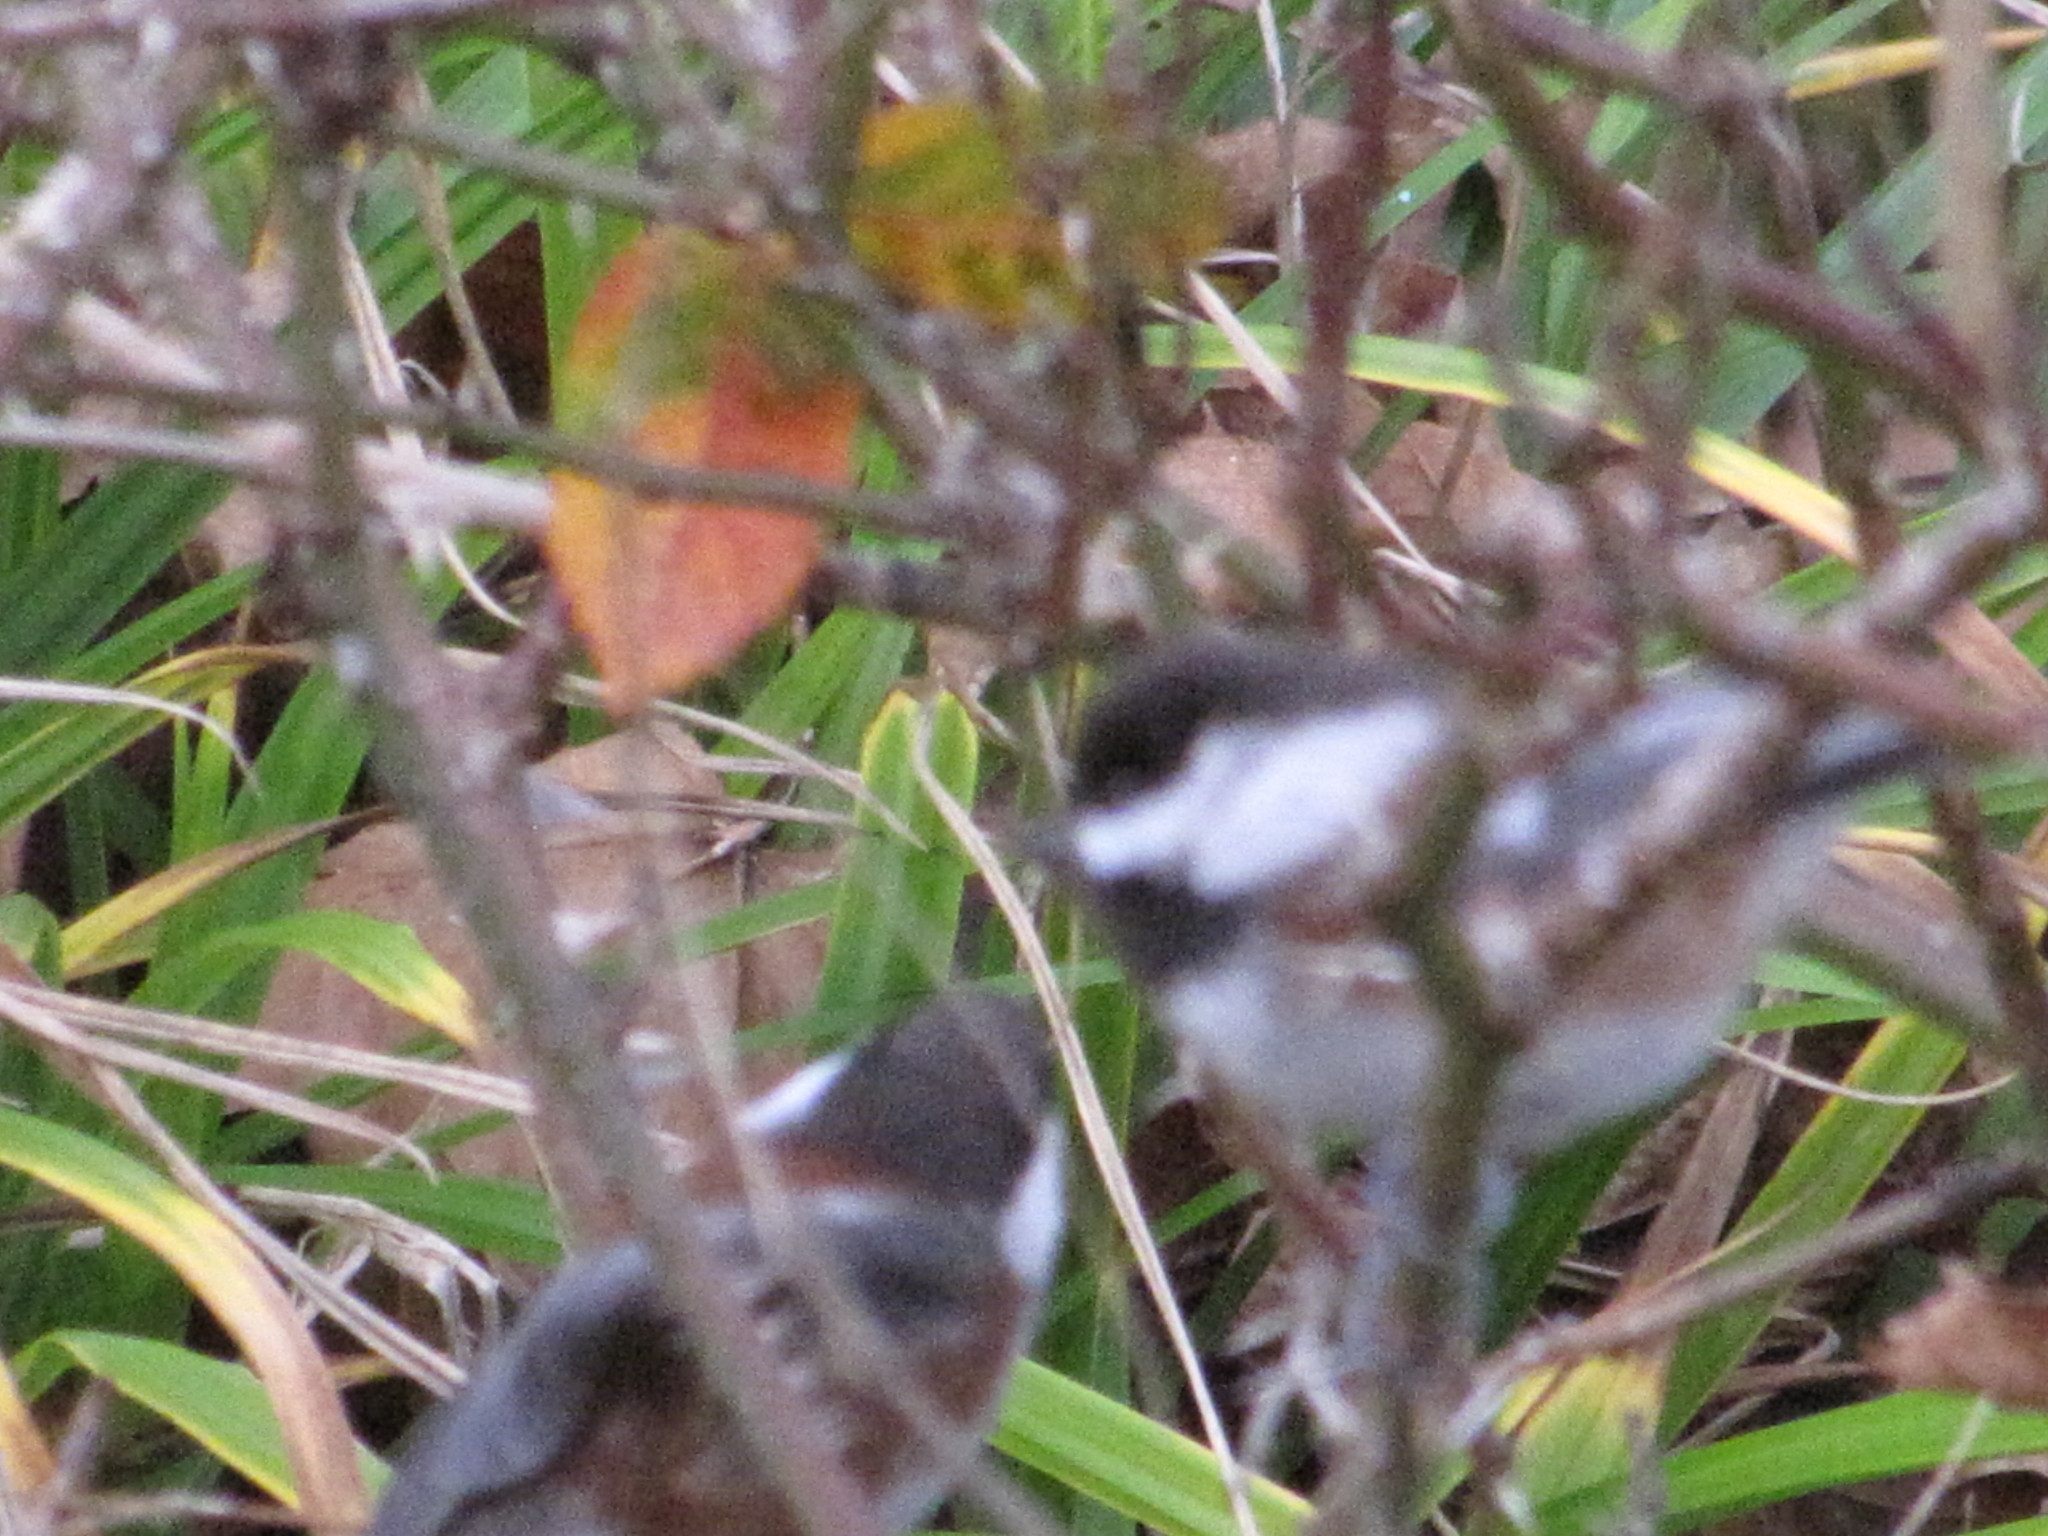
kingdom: Animalia
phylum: Chordata
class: Aves
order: Passeriformes
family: Paridae
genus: Poecile
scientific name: Poecile rufescens
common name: Chestnut-backed chickadee
